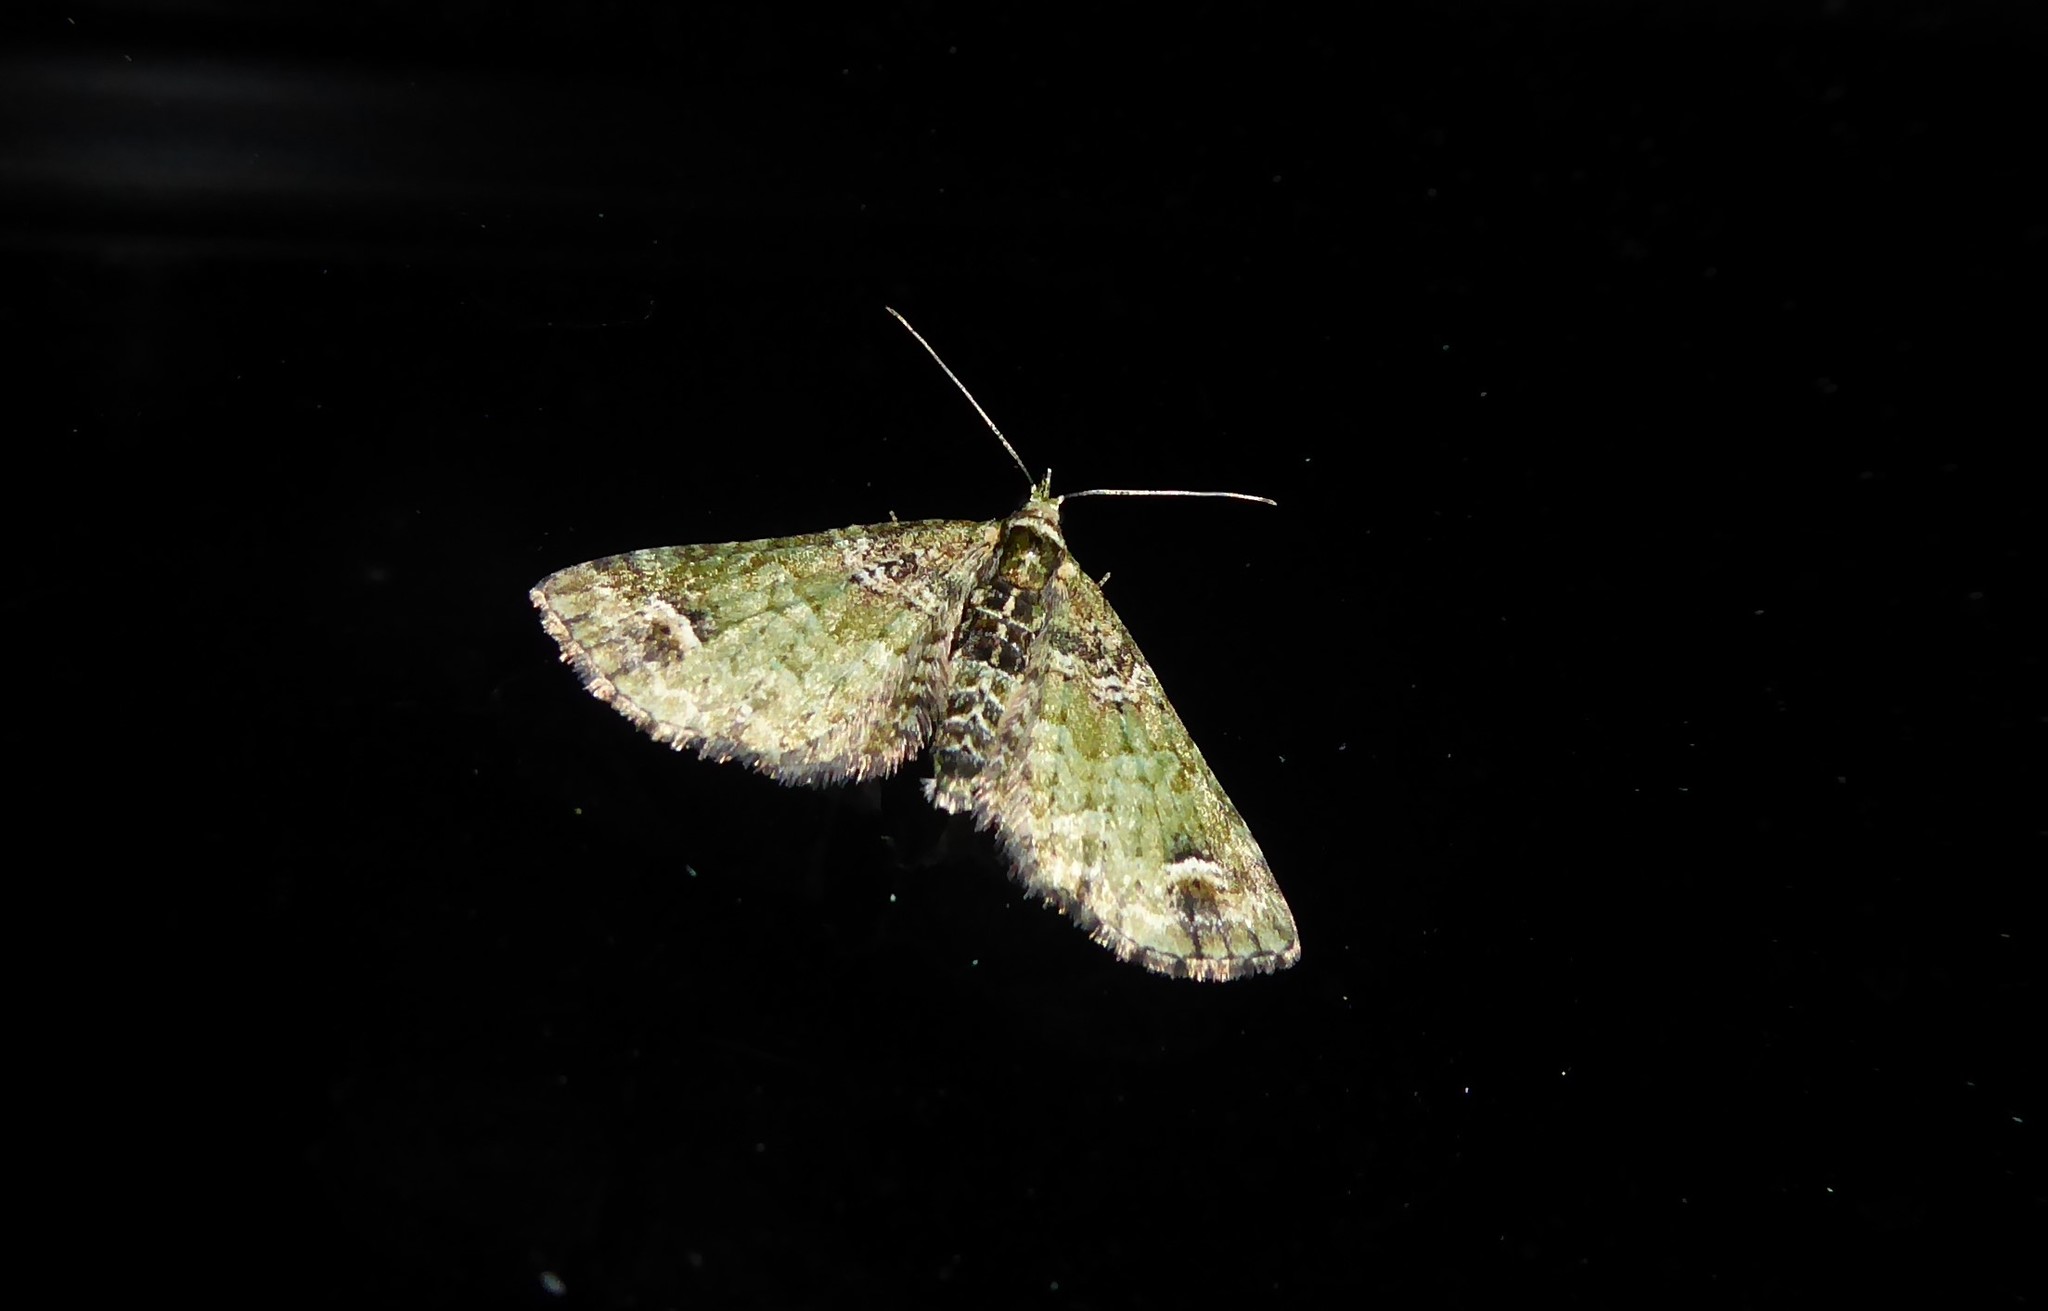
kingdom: Animalia
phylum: Arthropoda
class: Insecta
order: Lepidoptera
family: Geometridae
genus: Idaea
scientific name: Idaea mutanda
